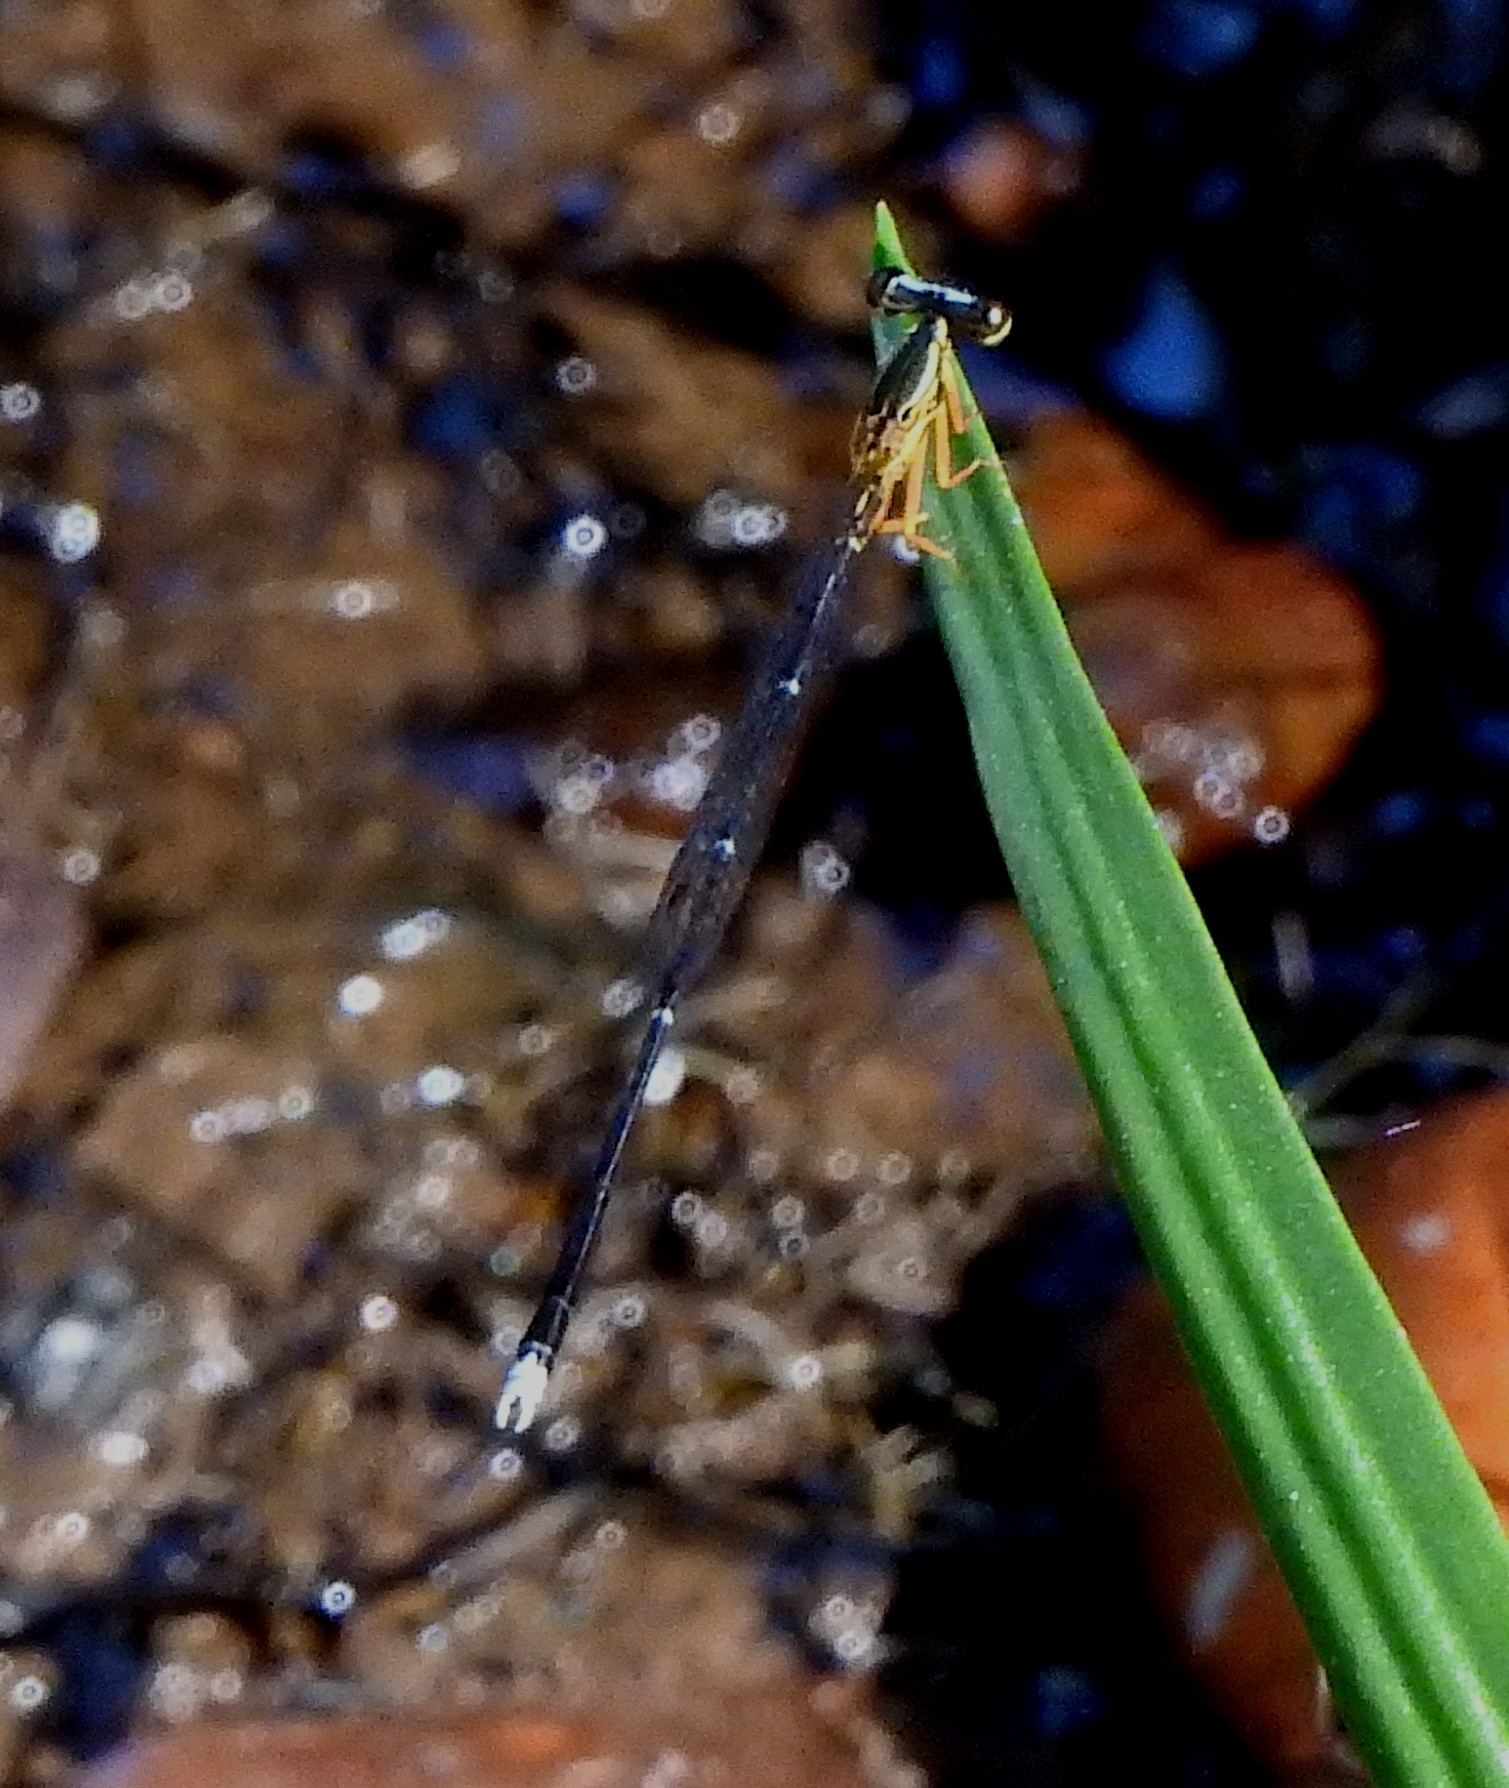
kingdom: Animalia
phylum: Arthropoda
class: Insecta
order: Odonata
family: Platycnemididae
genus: Copera
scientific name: Copera marginipes
